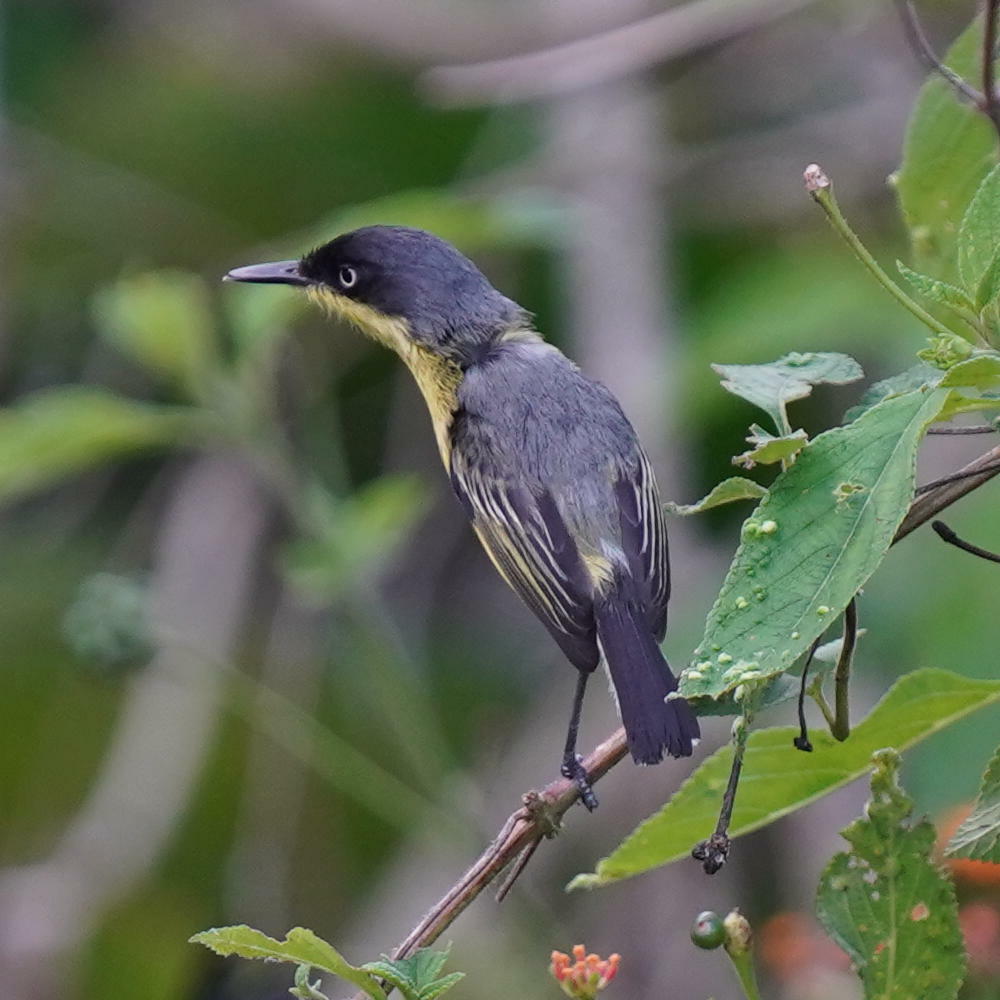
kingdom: Animalia
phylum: Chordata
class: Aves
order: Passeriformes
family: Tyrannidae
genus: Todirostrum
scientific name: Todirostrum cinereum
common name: Common tody-flycatcher
